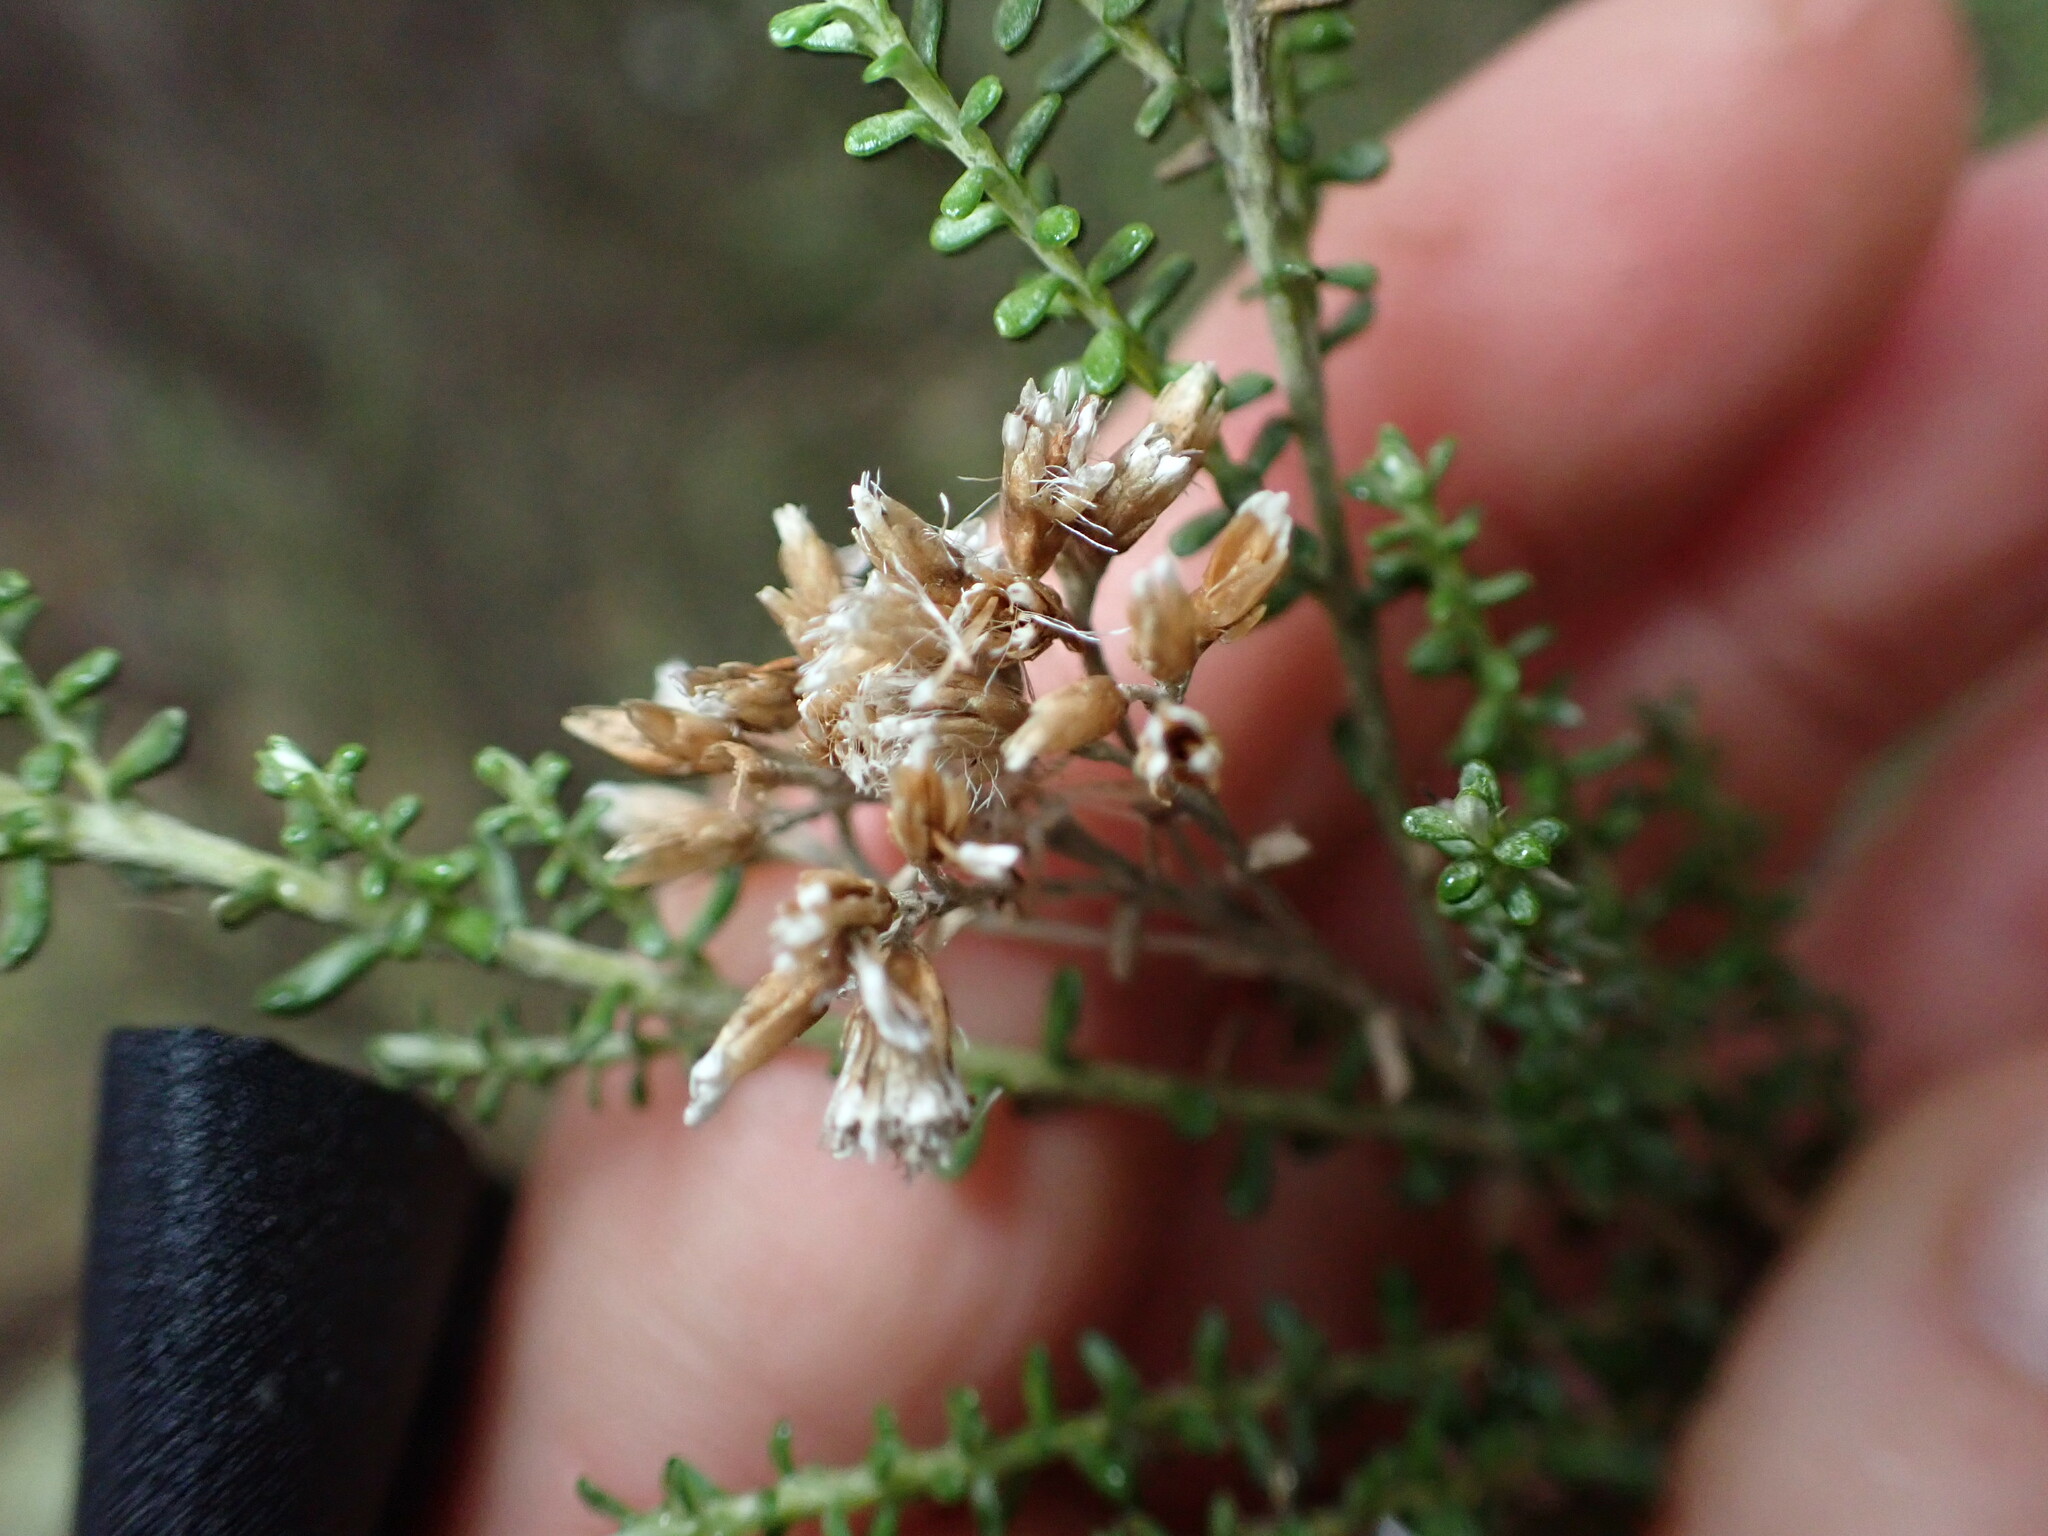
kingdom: Plantae
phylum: Tracheophyta
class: Magnoliopsida
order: Asterales
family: Asteraceae
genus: Ozothamnus
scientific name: Ozothamnus leptophyllus
